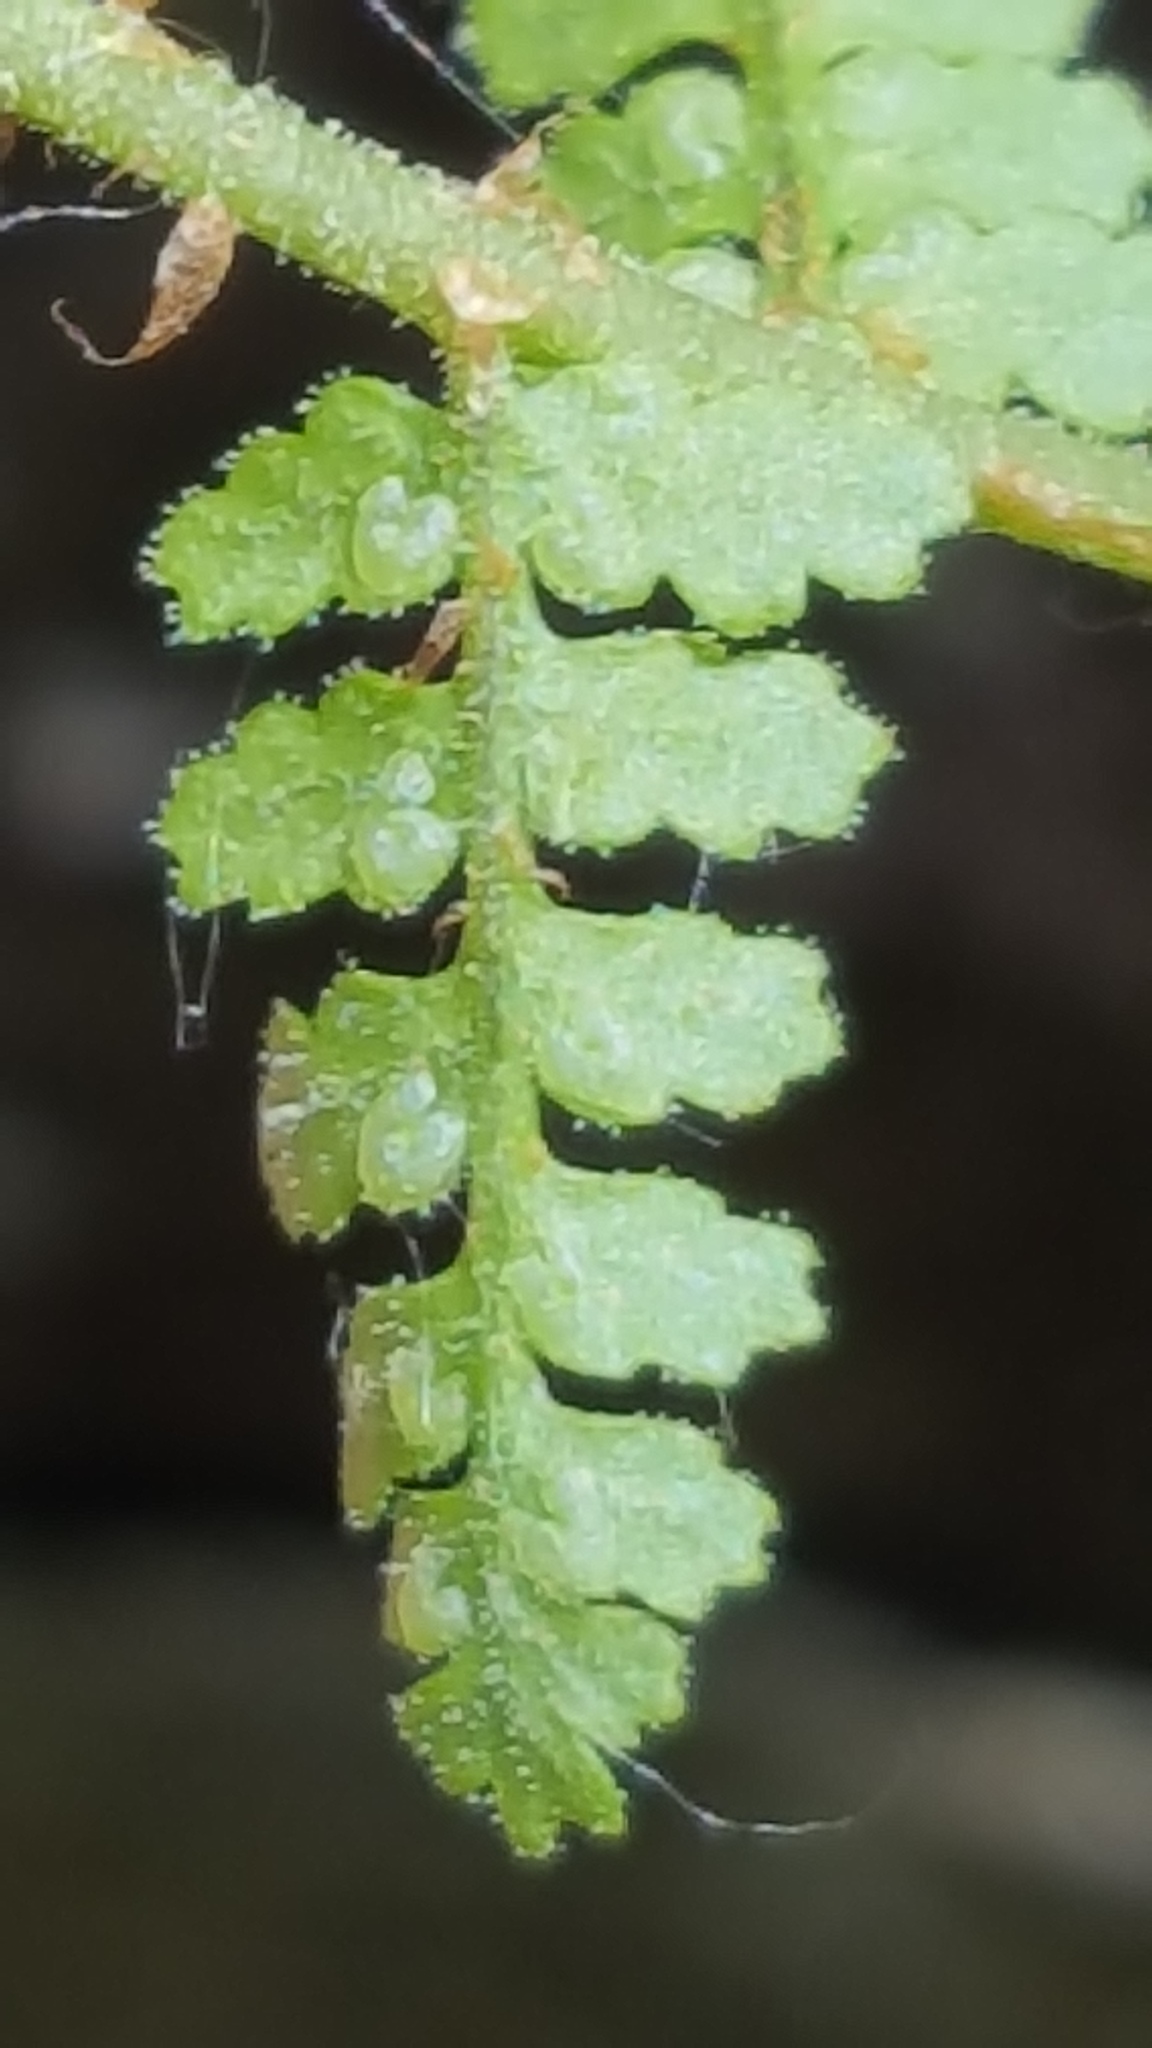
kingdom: Plantae
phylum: Tracheophyta
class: Polypodiopsida
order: Polypodiales
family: Dryopteridaceae
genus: Dryopteris
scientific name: Dryopteris fragrans
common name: Fragrant wood fern
